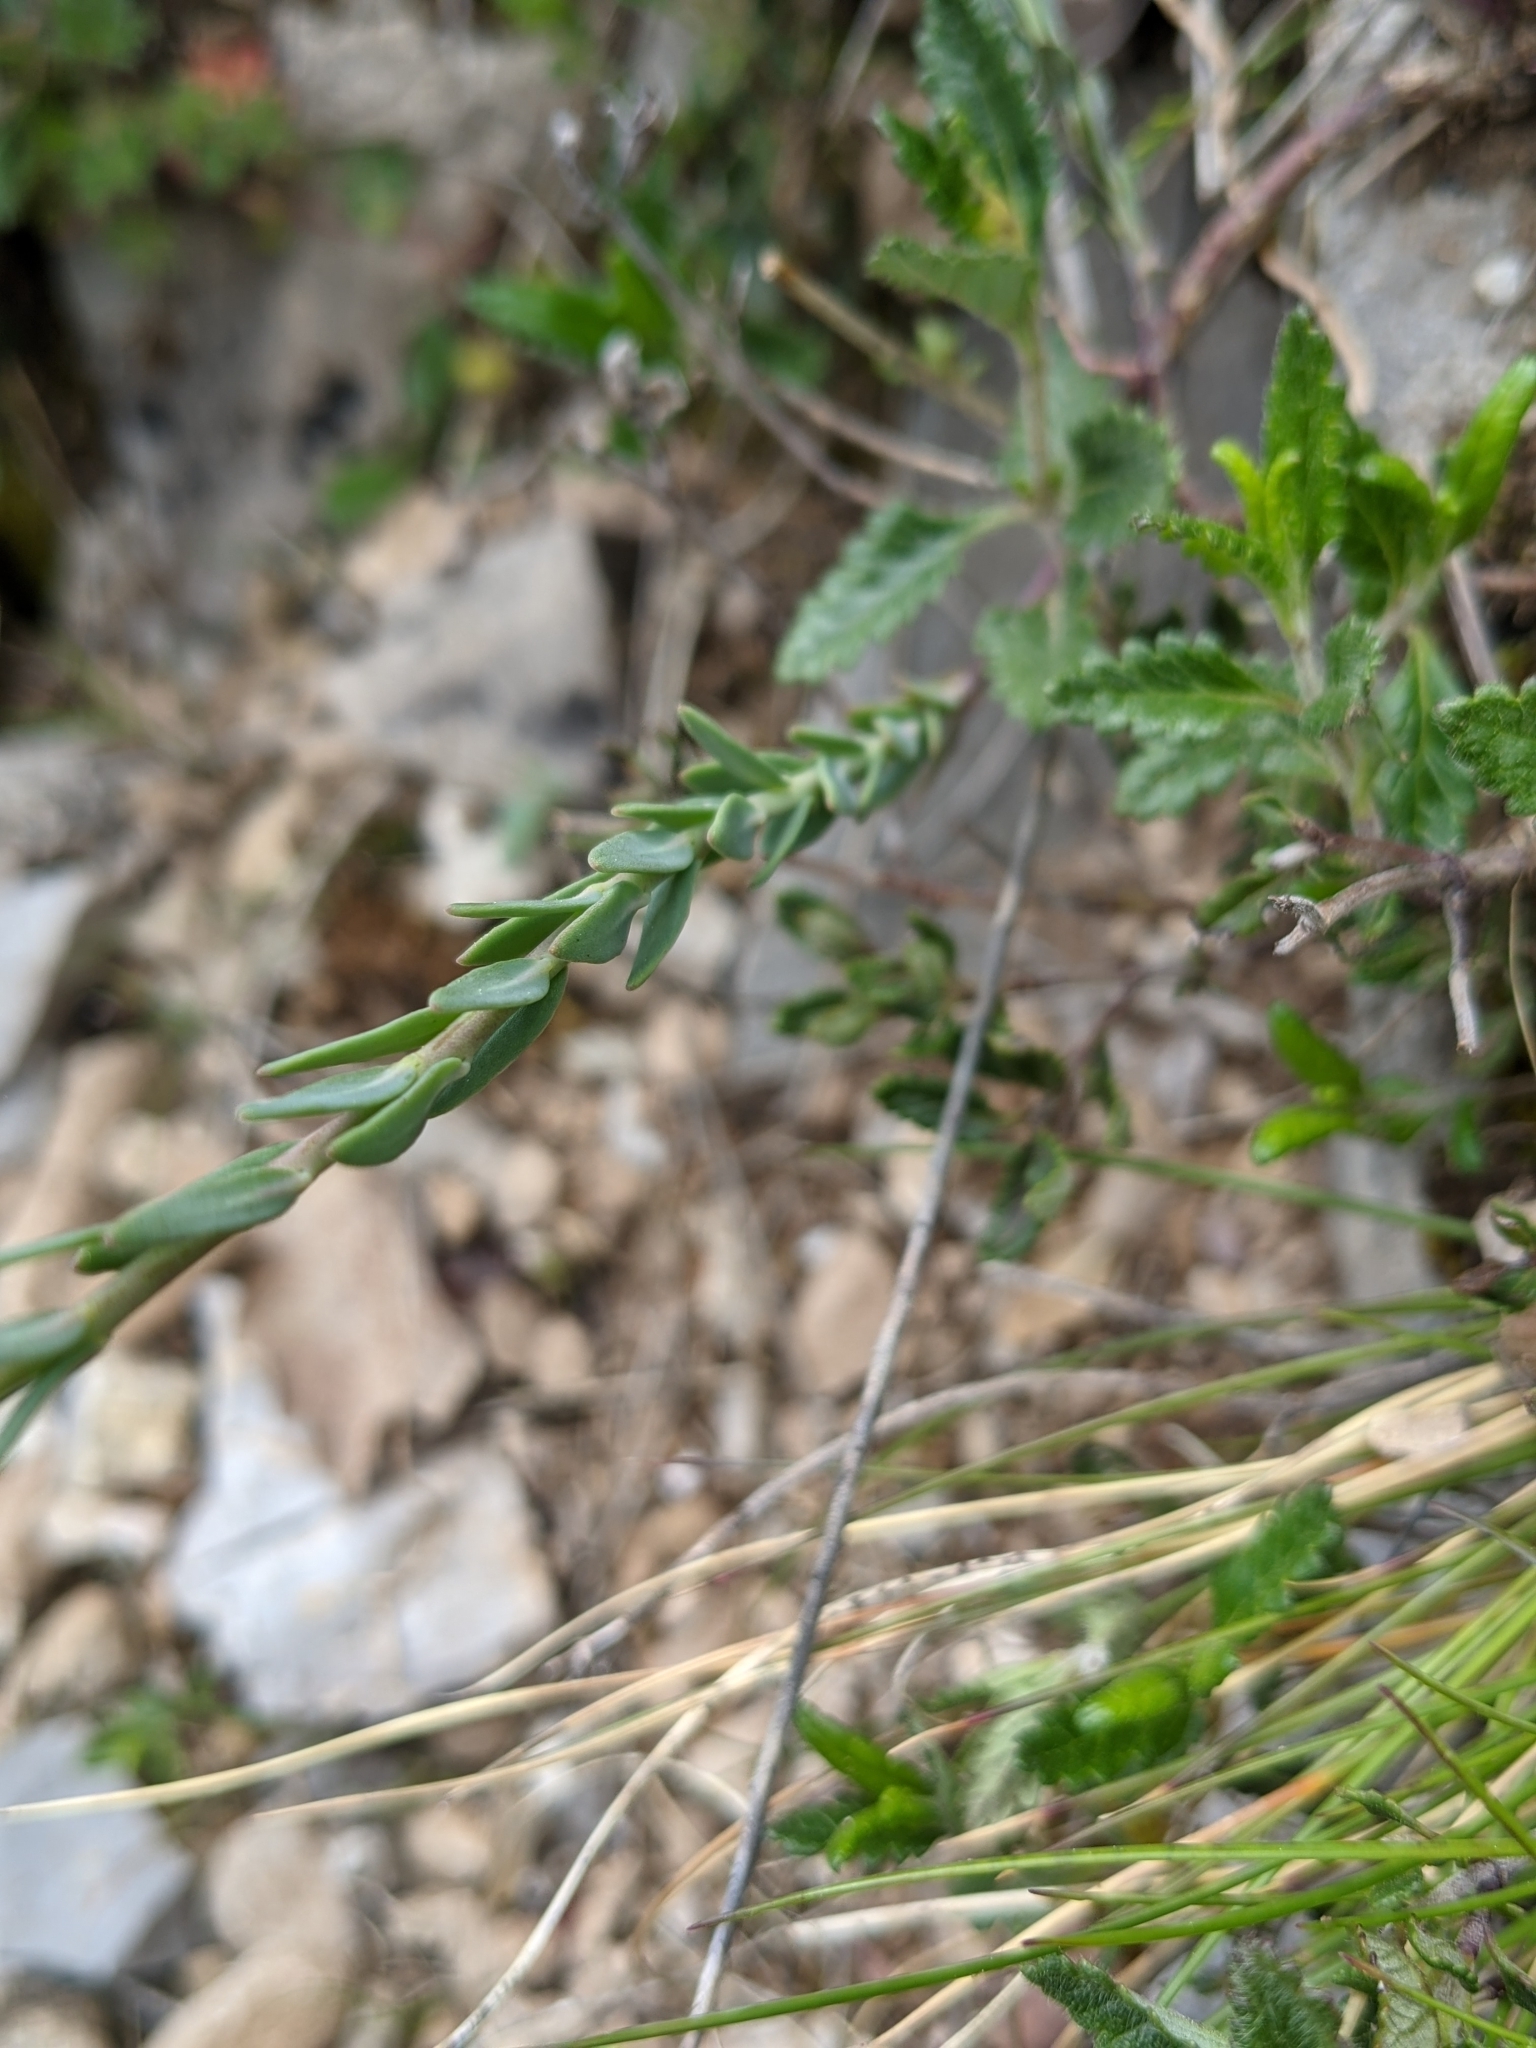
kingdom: Plantae
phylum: Tracheophyta
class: Magnoliopsida
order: Brassicales
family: Brassicaceae
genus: Aethionema
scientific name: Aethionema saxatile
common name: Burnt candytuft
